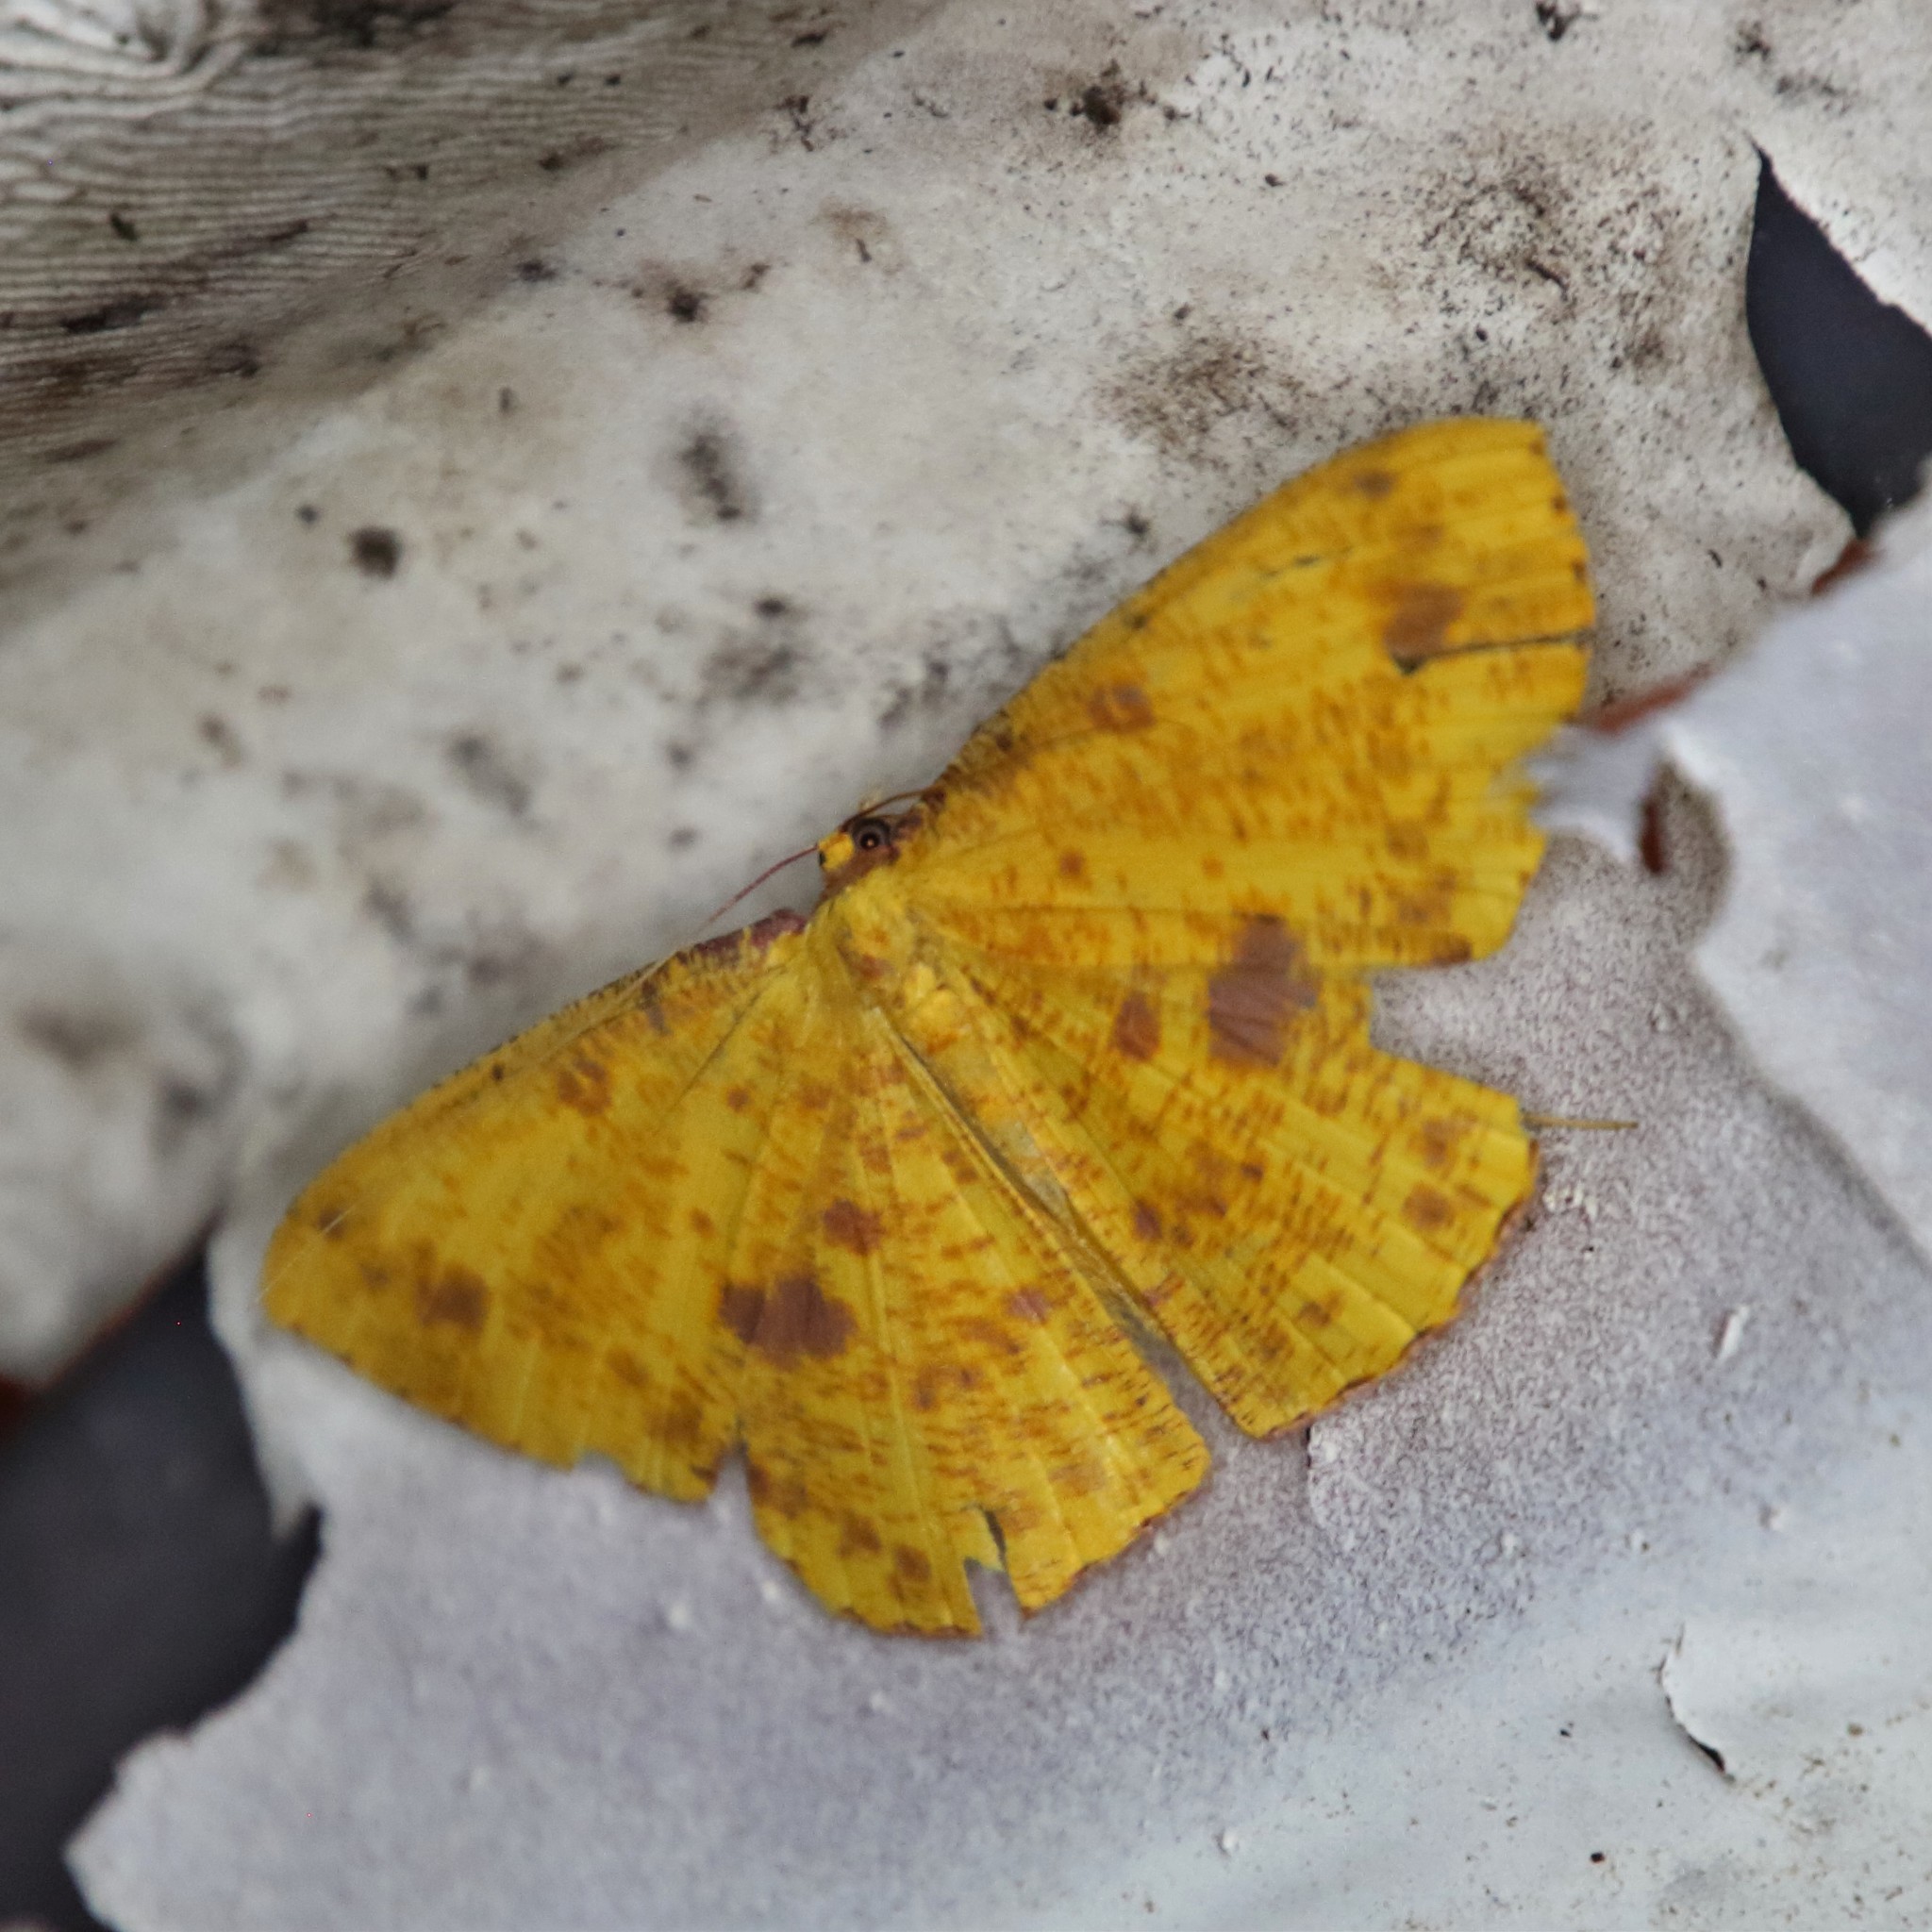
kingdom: Animalia
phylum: Arthropoda
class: Insecta
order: Lepidoptera
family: Geometridae
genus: Eumelea
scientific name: Eumelea ludovicata
